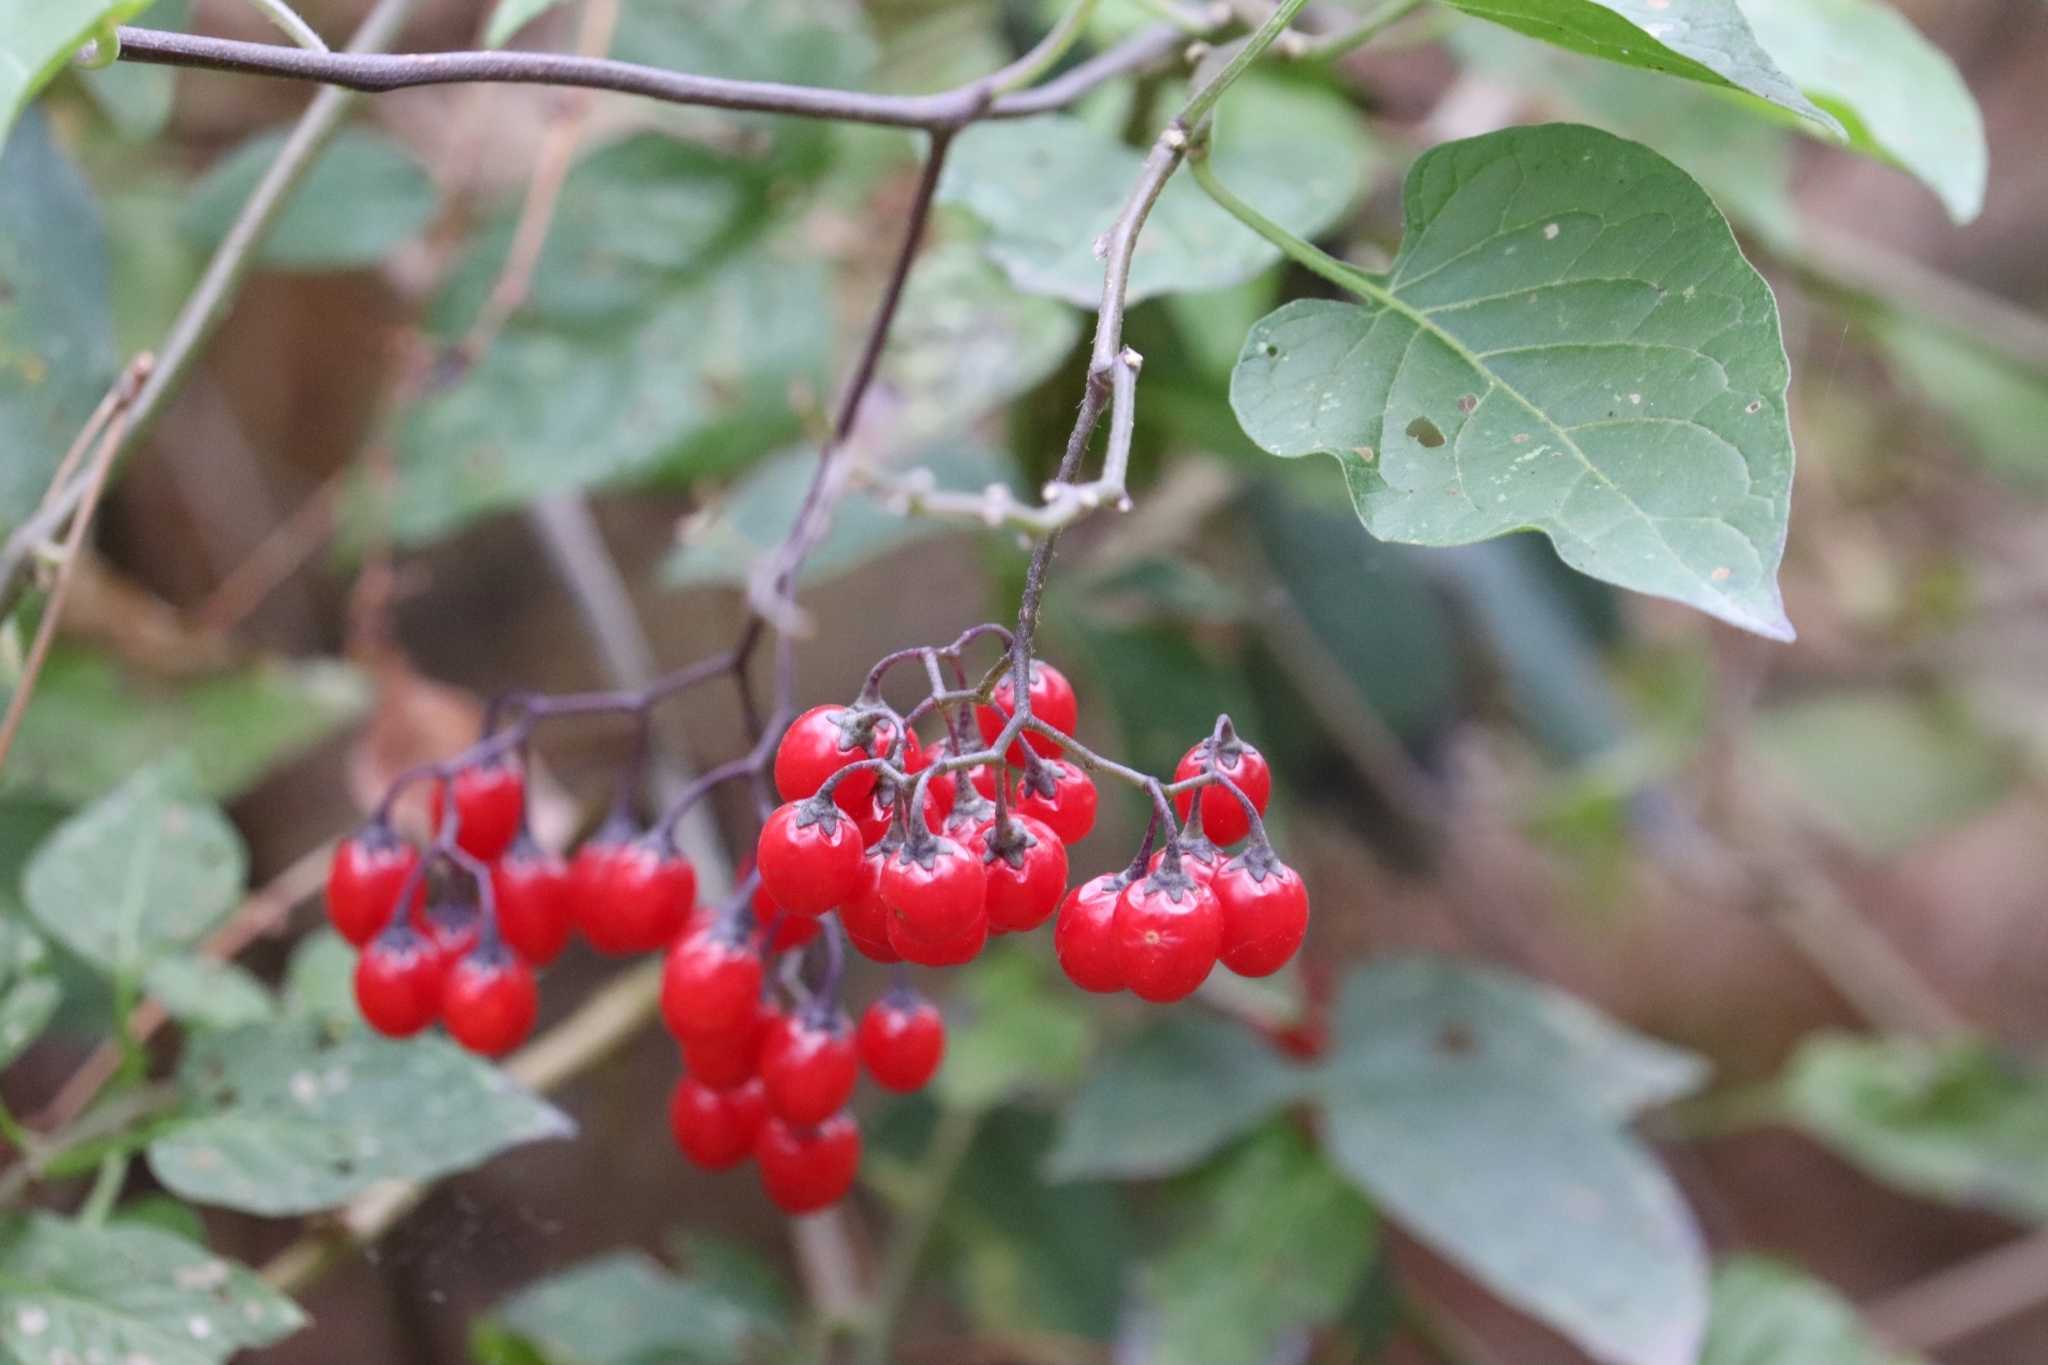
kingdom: Plantae
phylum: Tracheophyta
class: Magnoliopsida
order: Solanales
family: Solanaceae
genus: Solanum
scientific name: Solanum dulcamara
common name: Climbing nightshade
